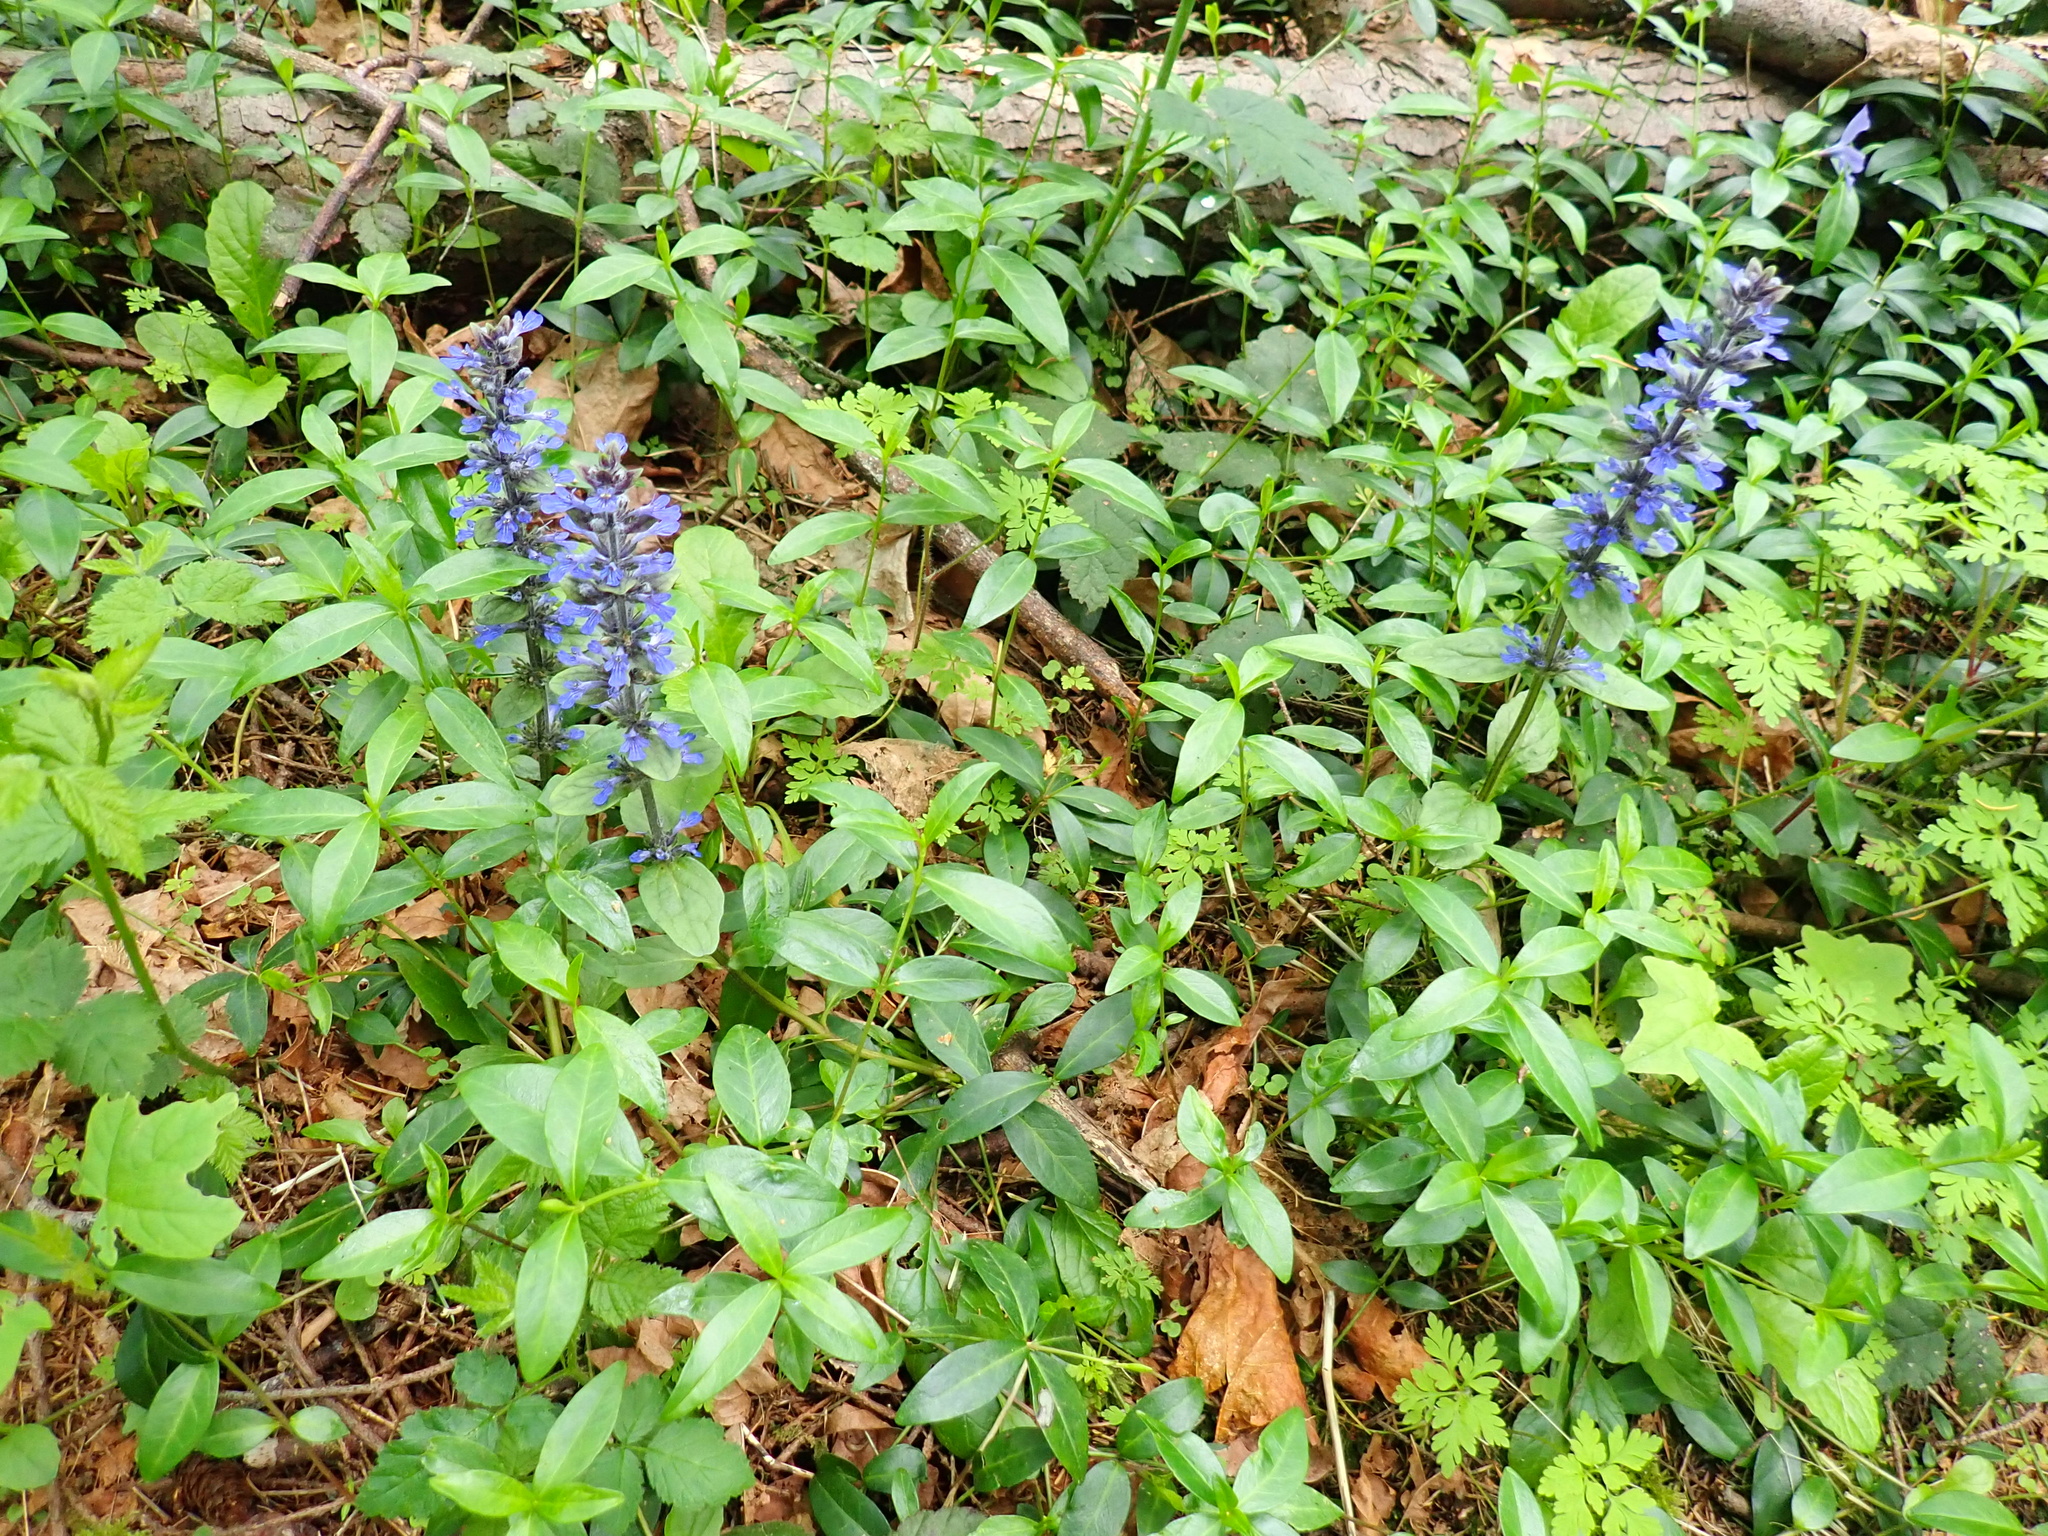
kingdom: Plantae
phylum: Tracheophyta
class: Magnoliopsida
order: Lamiales
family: Lamiaceae
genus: Ajuga
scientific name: Ajuga reptans
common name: Bugle
